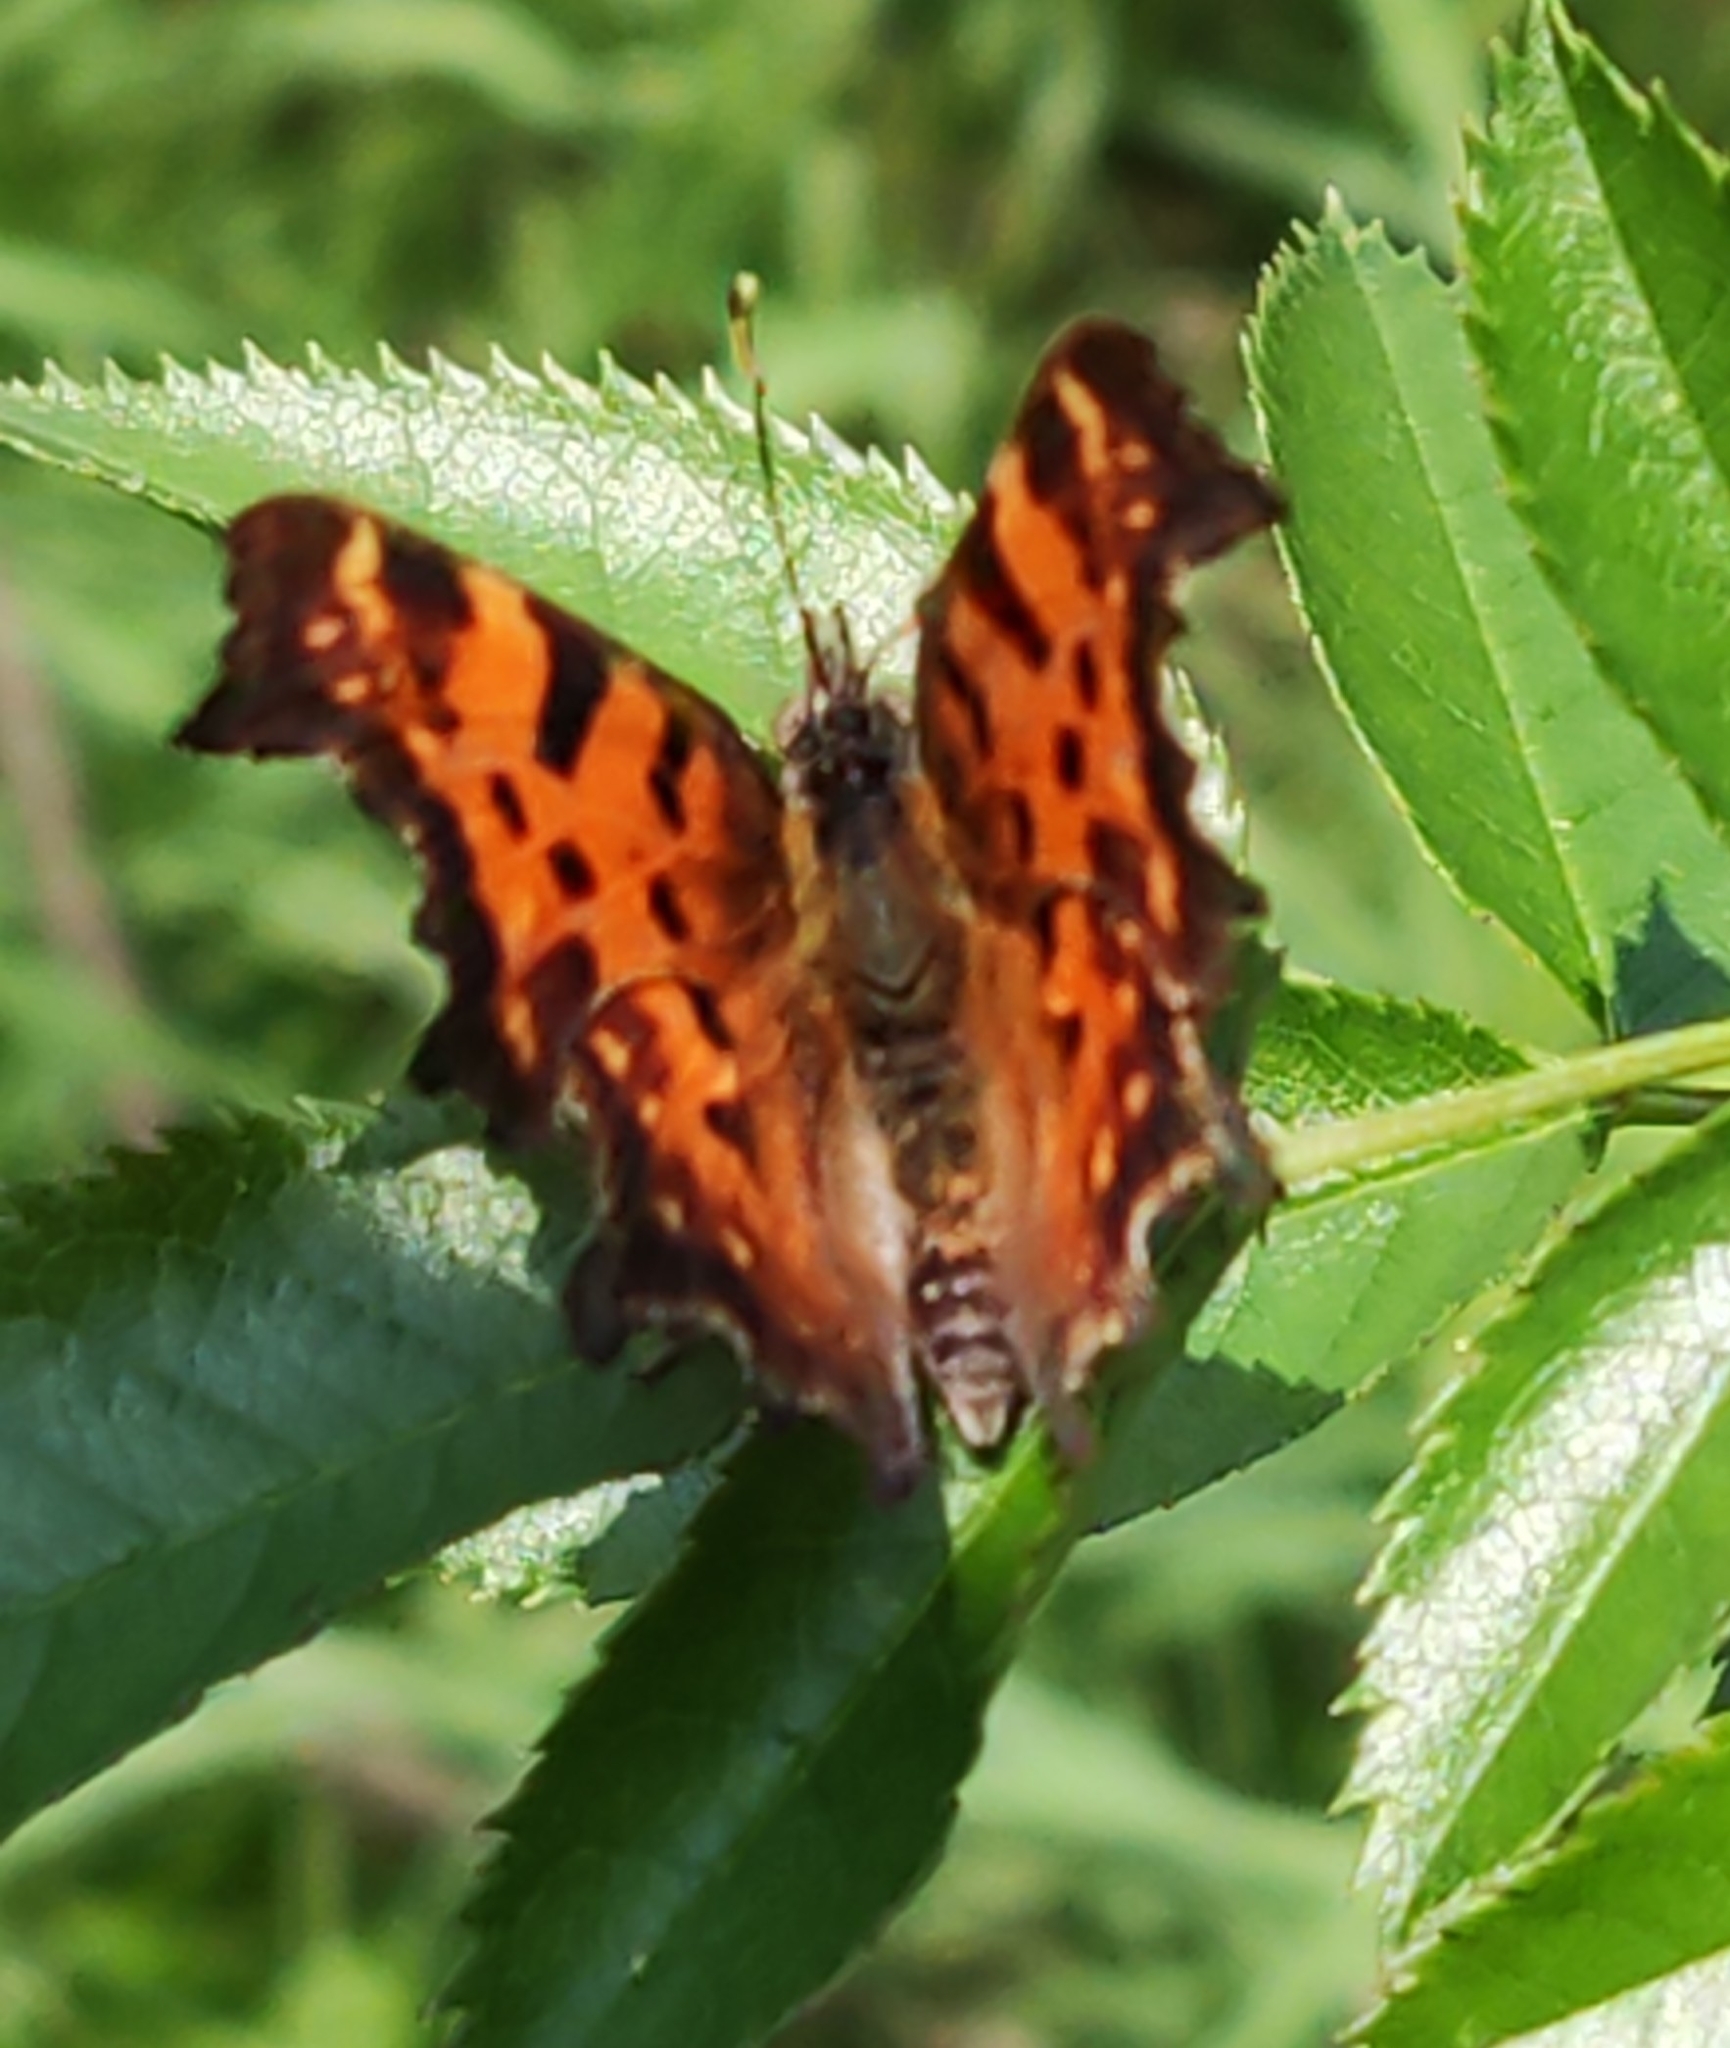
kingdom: Animalia
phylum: Arthropoda
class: Insecta
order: Lepidoptera
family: Nymphalidae
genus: Polygonia
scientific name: Polygonia c-album
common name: Comma
